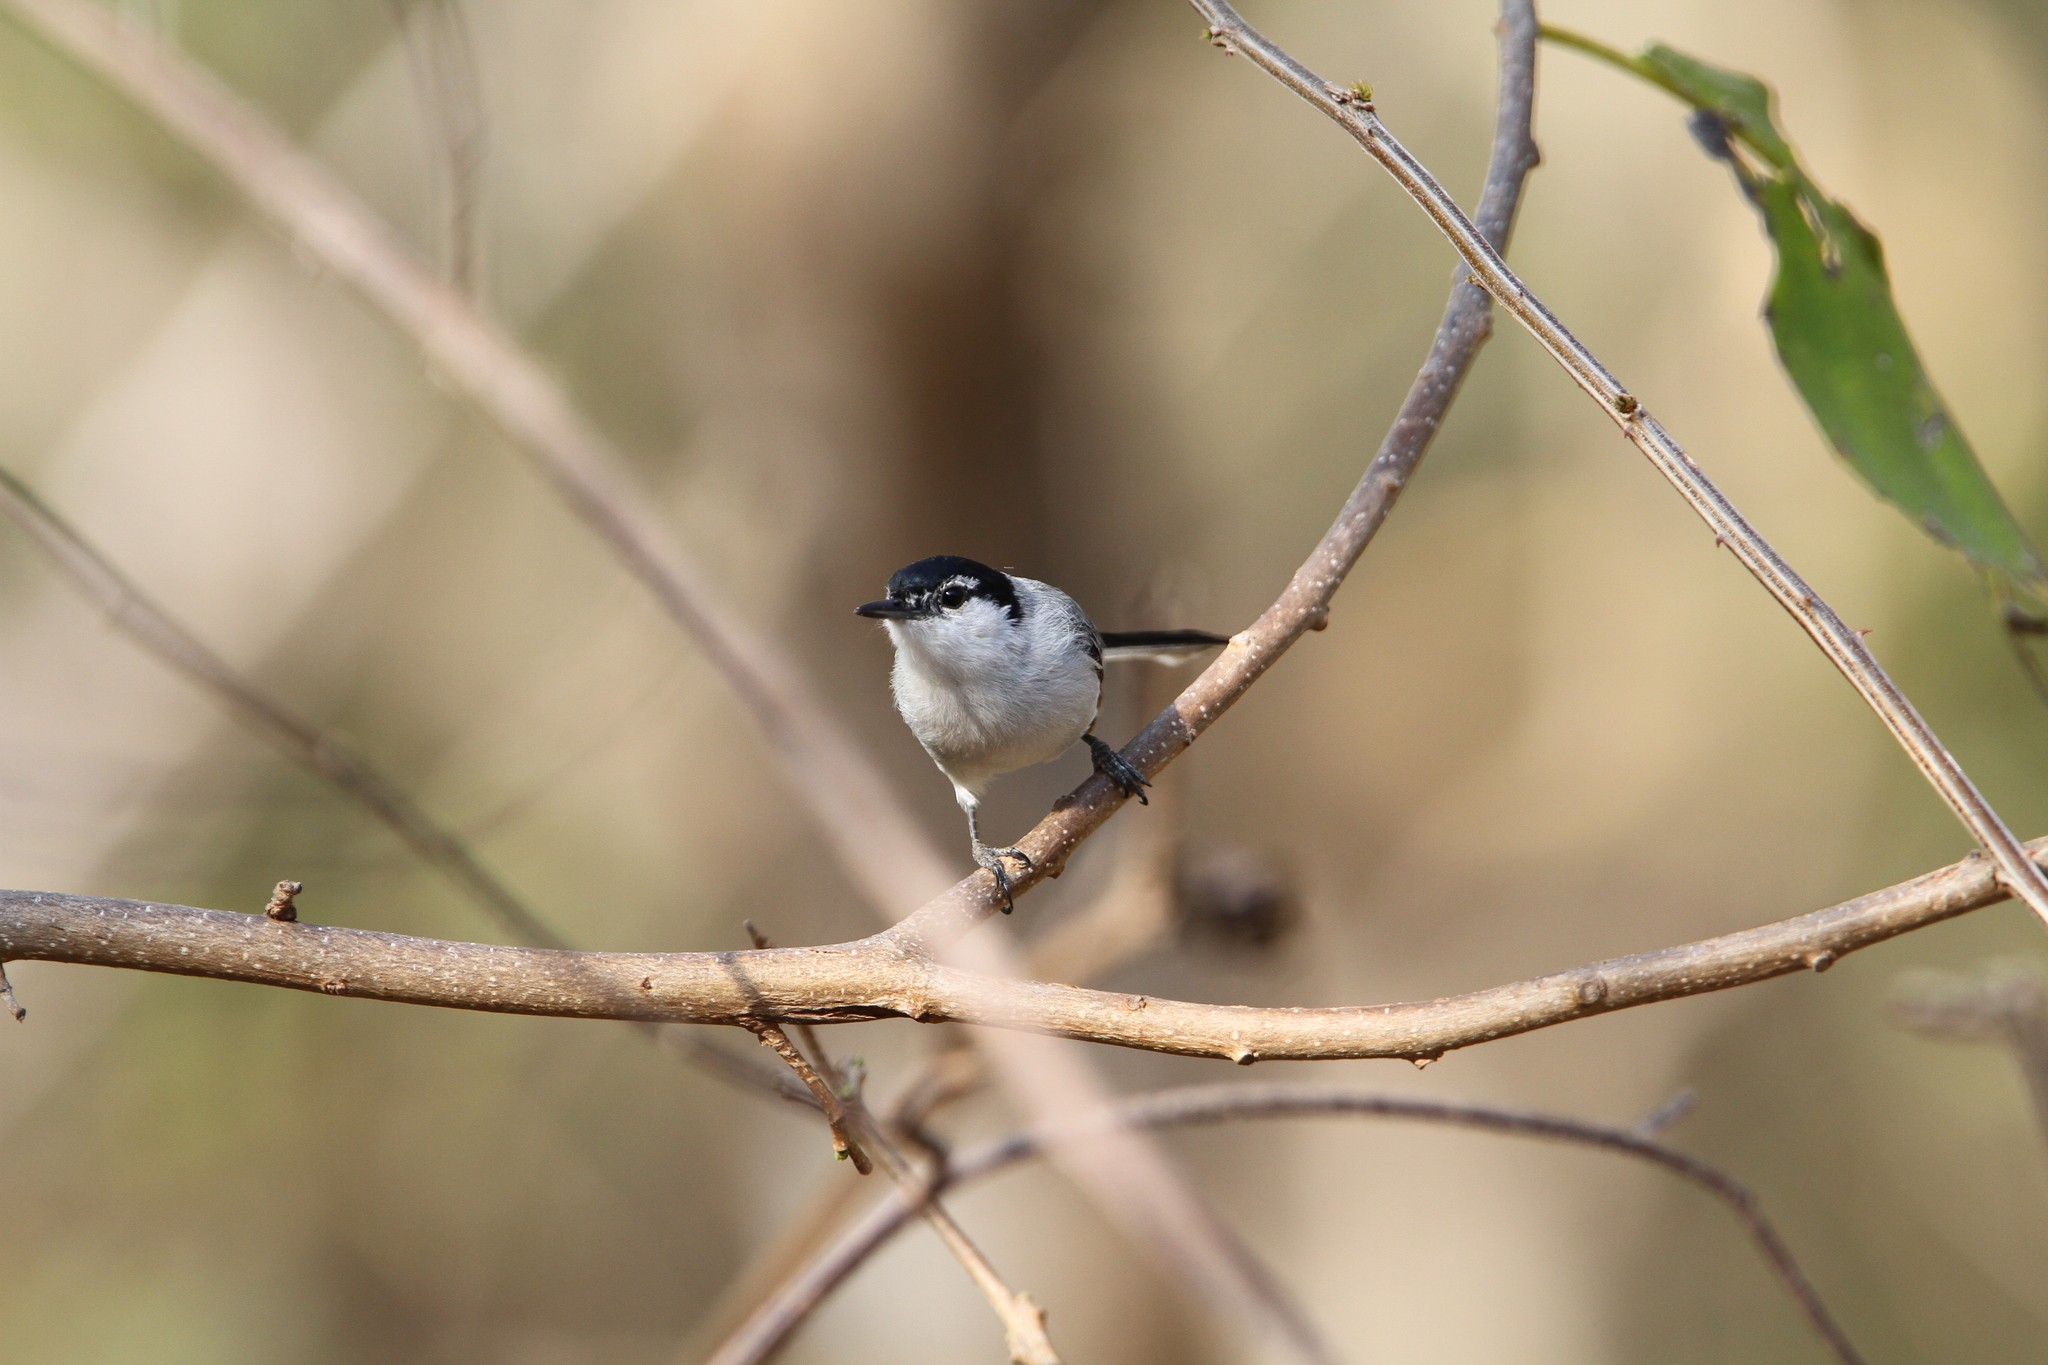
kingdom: Animalia
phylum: Chordata
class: Aves
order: Passeriformes
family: Polioptilidae
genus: Polioptila
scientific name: Polioptila albiloris
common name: White-lored gnatcatcher
